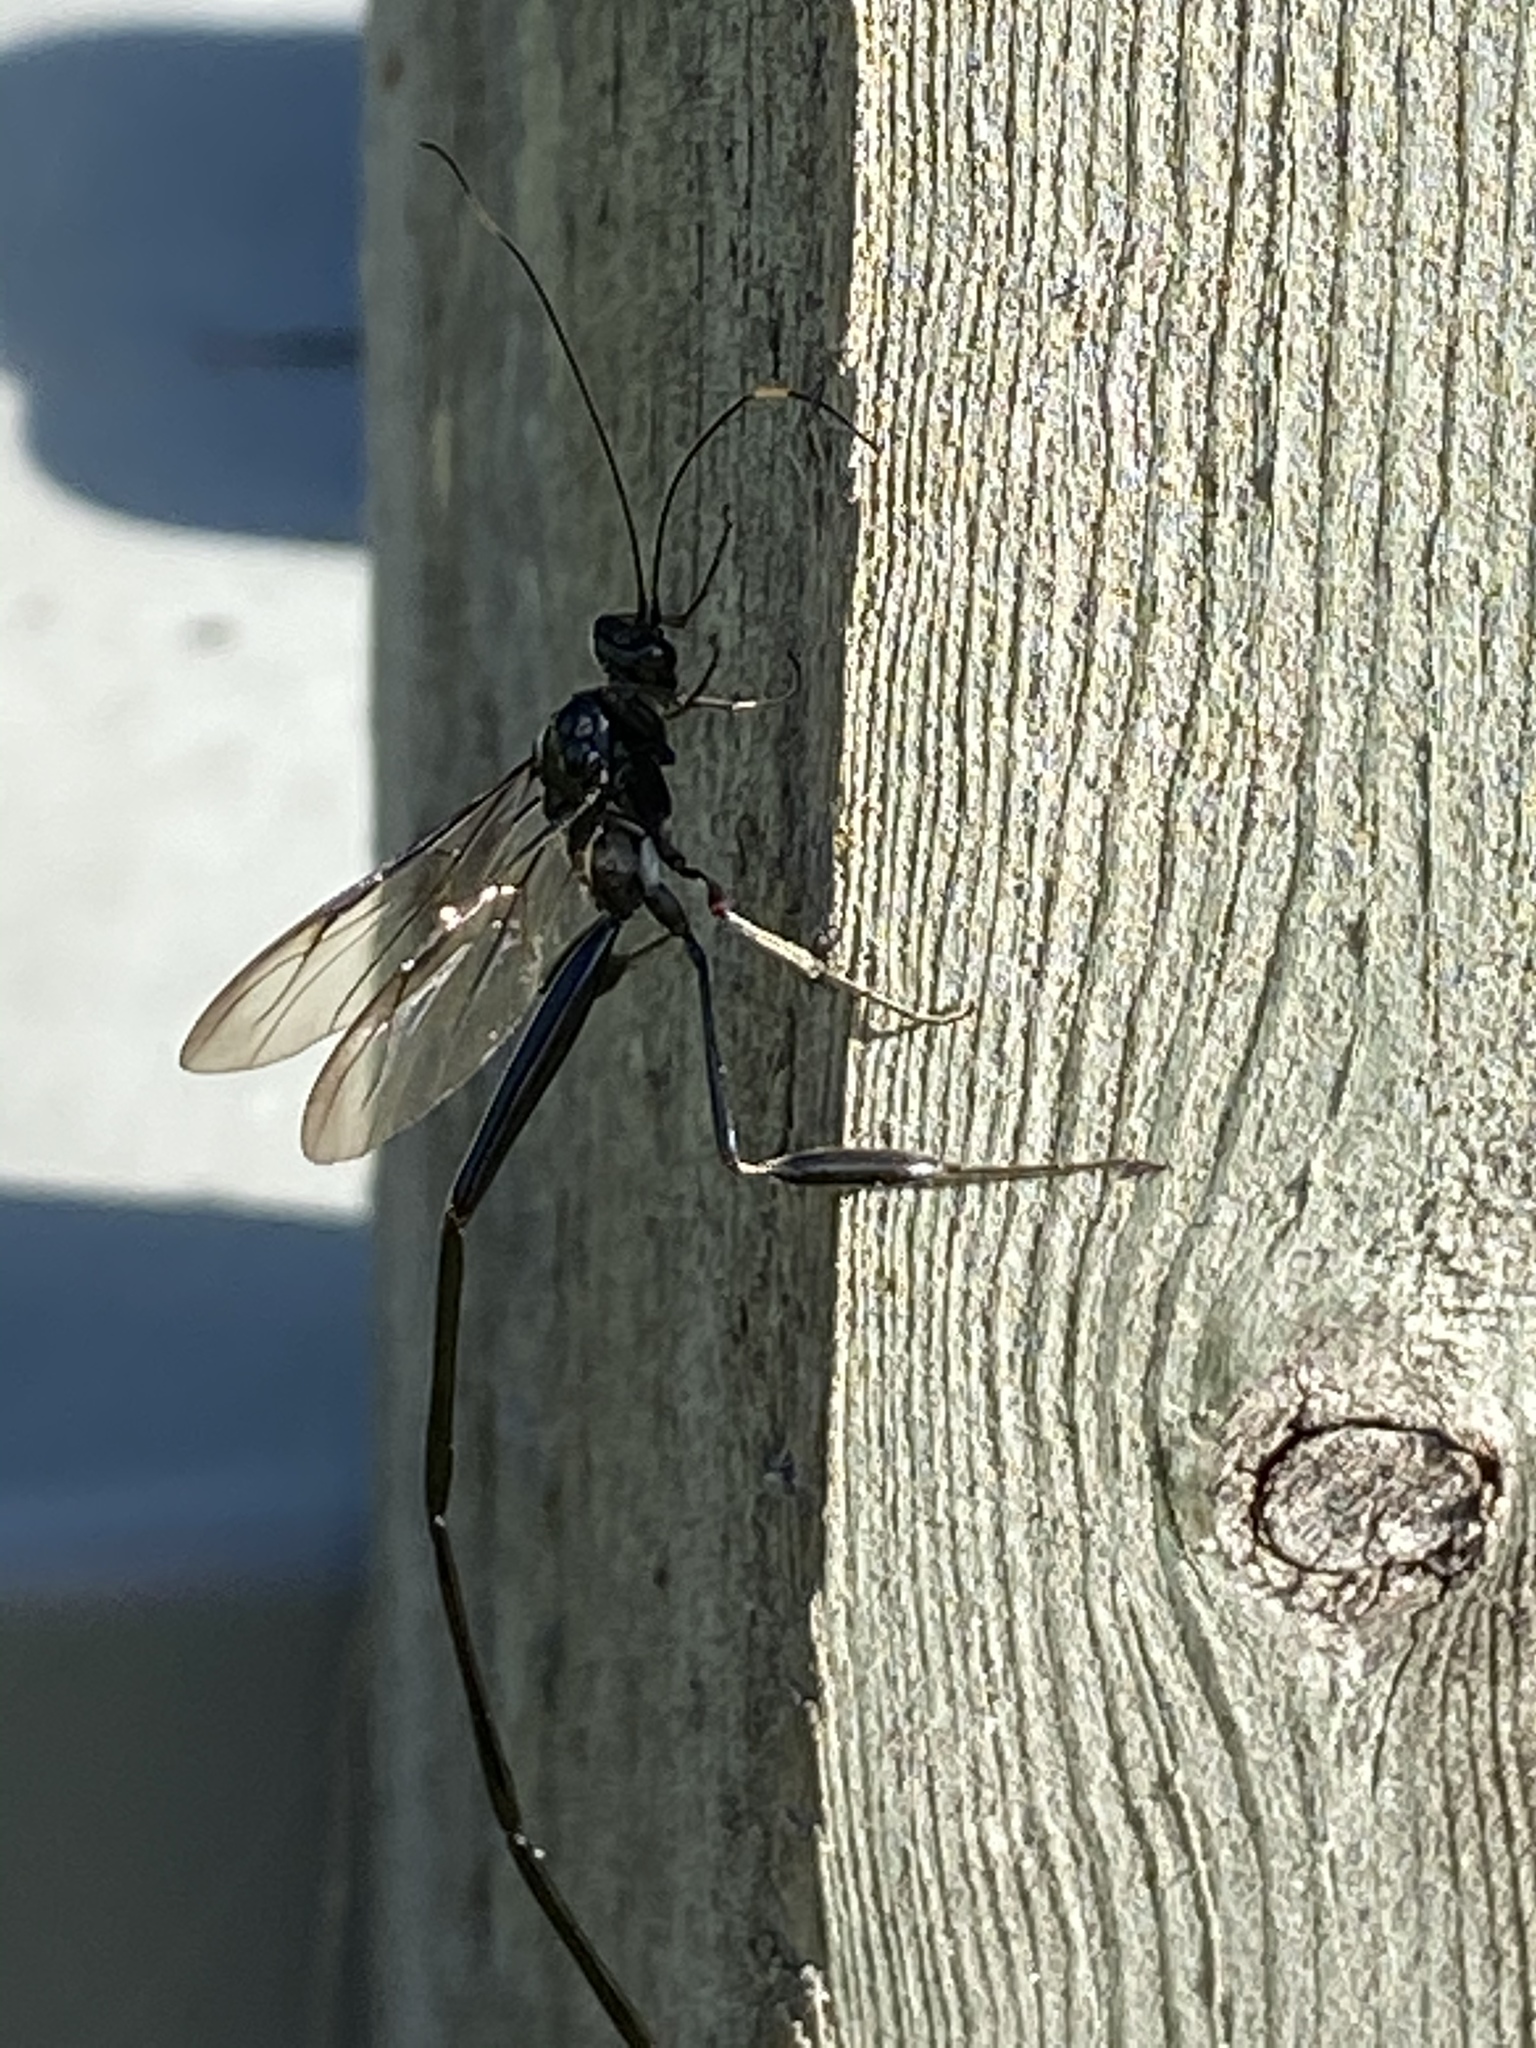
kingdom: Animalia
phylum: Arthropoda
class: Insecta
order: Hymenoptera
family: Pelecinidae
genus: Pelecinus
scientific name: Pelecinus polyturator
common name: American pelecinid wasp
